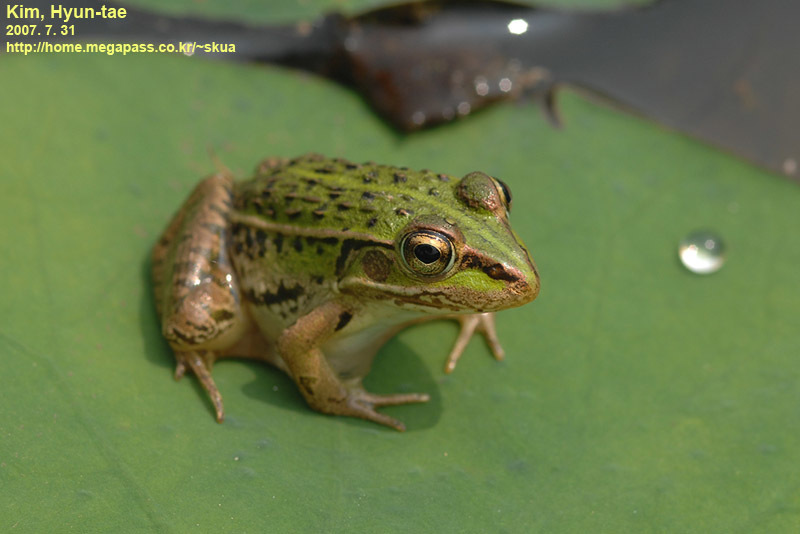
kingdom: Animalia
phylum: Chordata
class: Amphibia
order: Anura
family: Ranidae
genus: Pelophylax
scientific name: Pelophylax nigromaculatus
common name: Black-spotted pond frog
